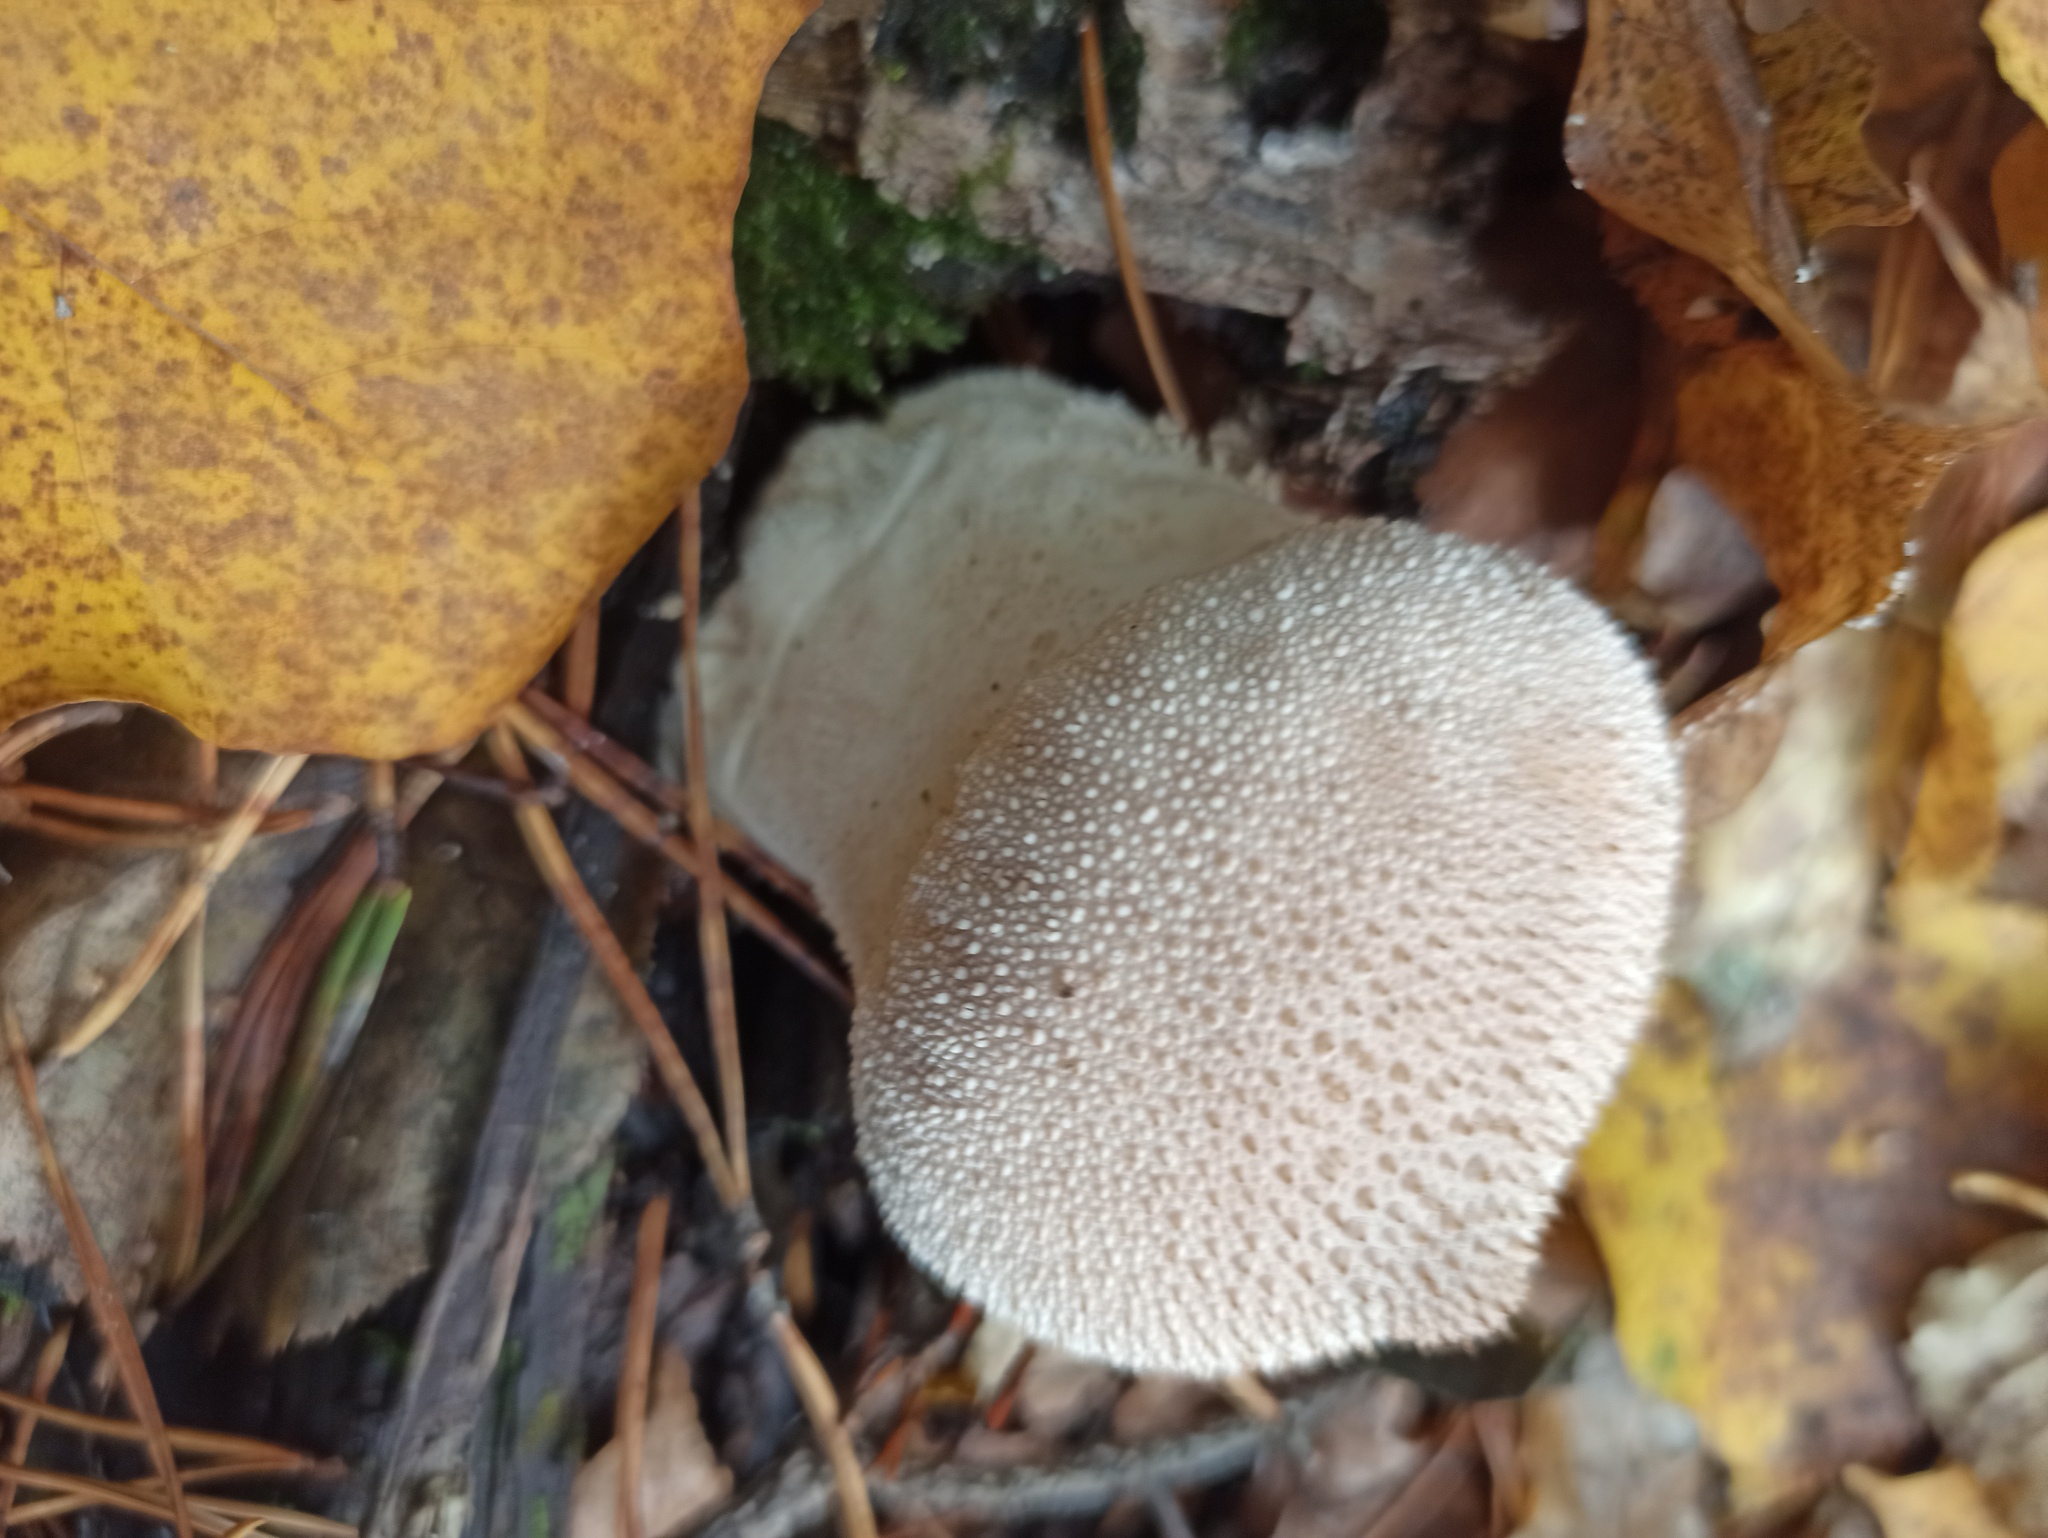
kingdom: Fungi
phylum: Basidiomycota
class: Agaricomycetes
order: Agaricales
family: Lycoperdaceae
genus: Lycoperdon
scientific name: Lycoperdon perlatum
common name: Common puffball
